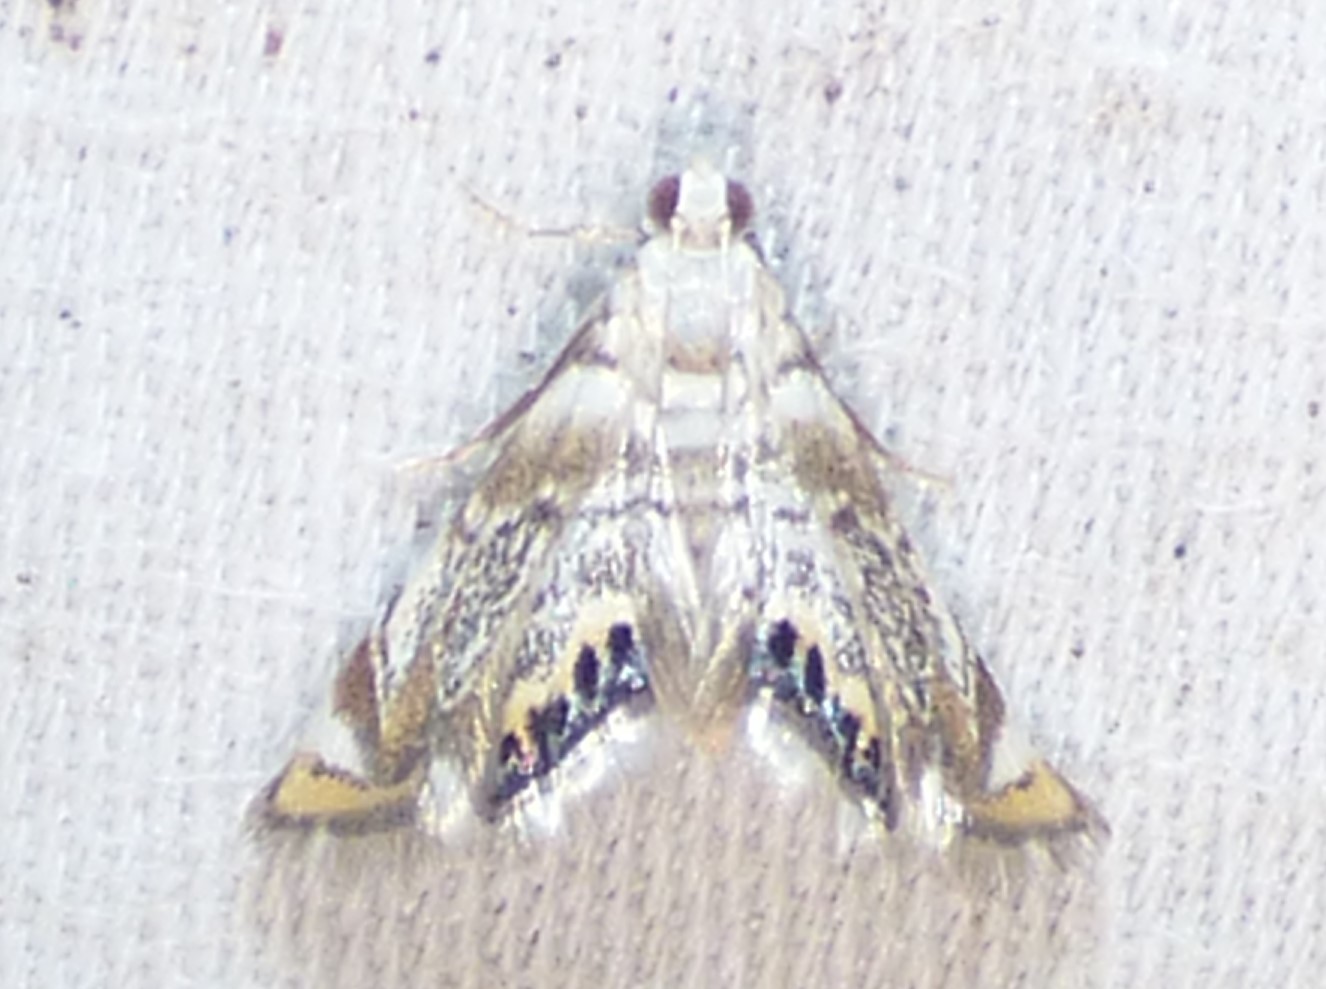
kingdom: Animalia
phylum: Arthropoda
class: Insecta
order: Lepidoptera
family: Crambidae
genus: Eoparargyractis
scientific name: Eoparargyractis irroratalis
